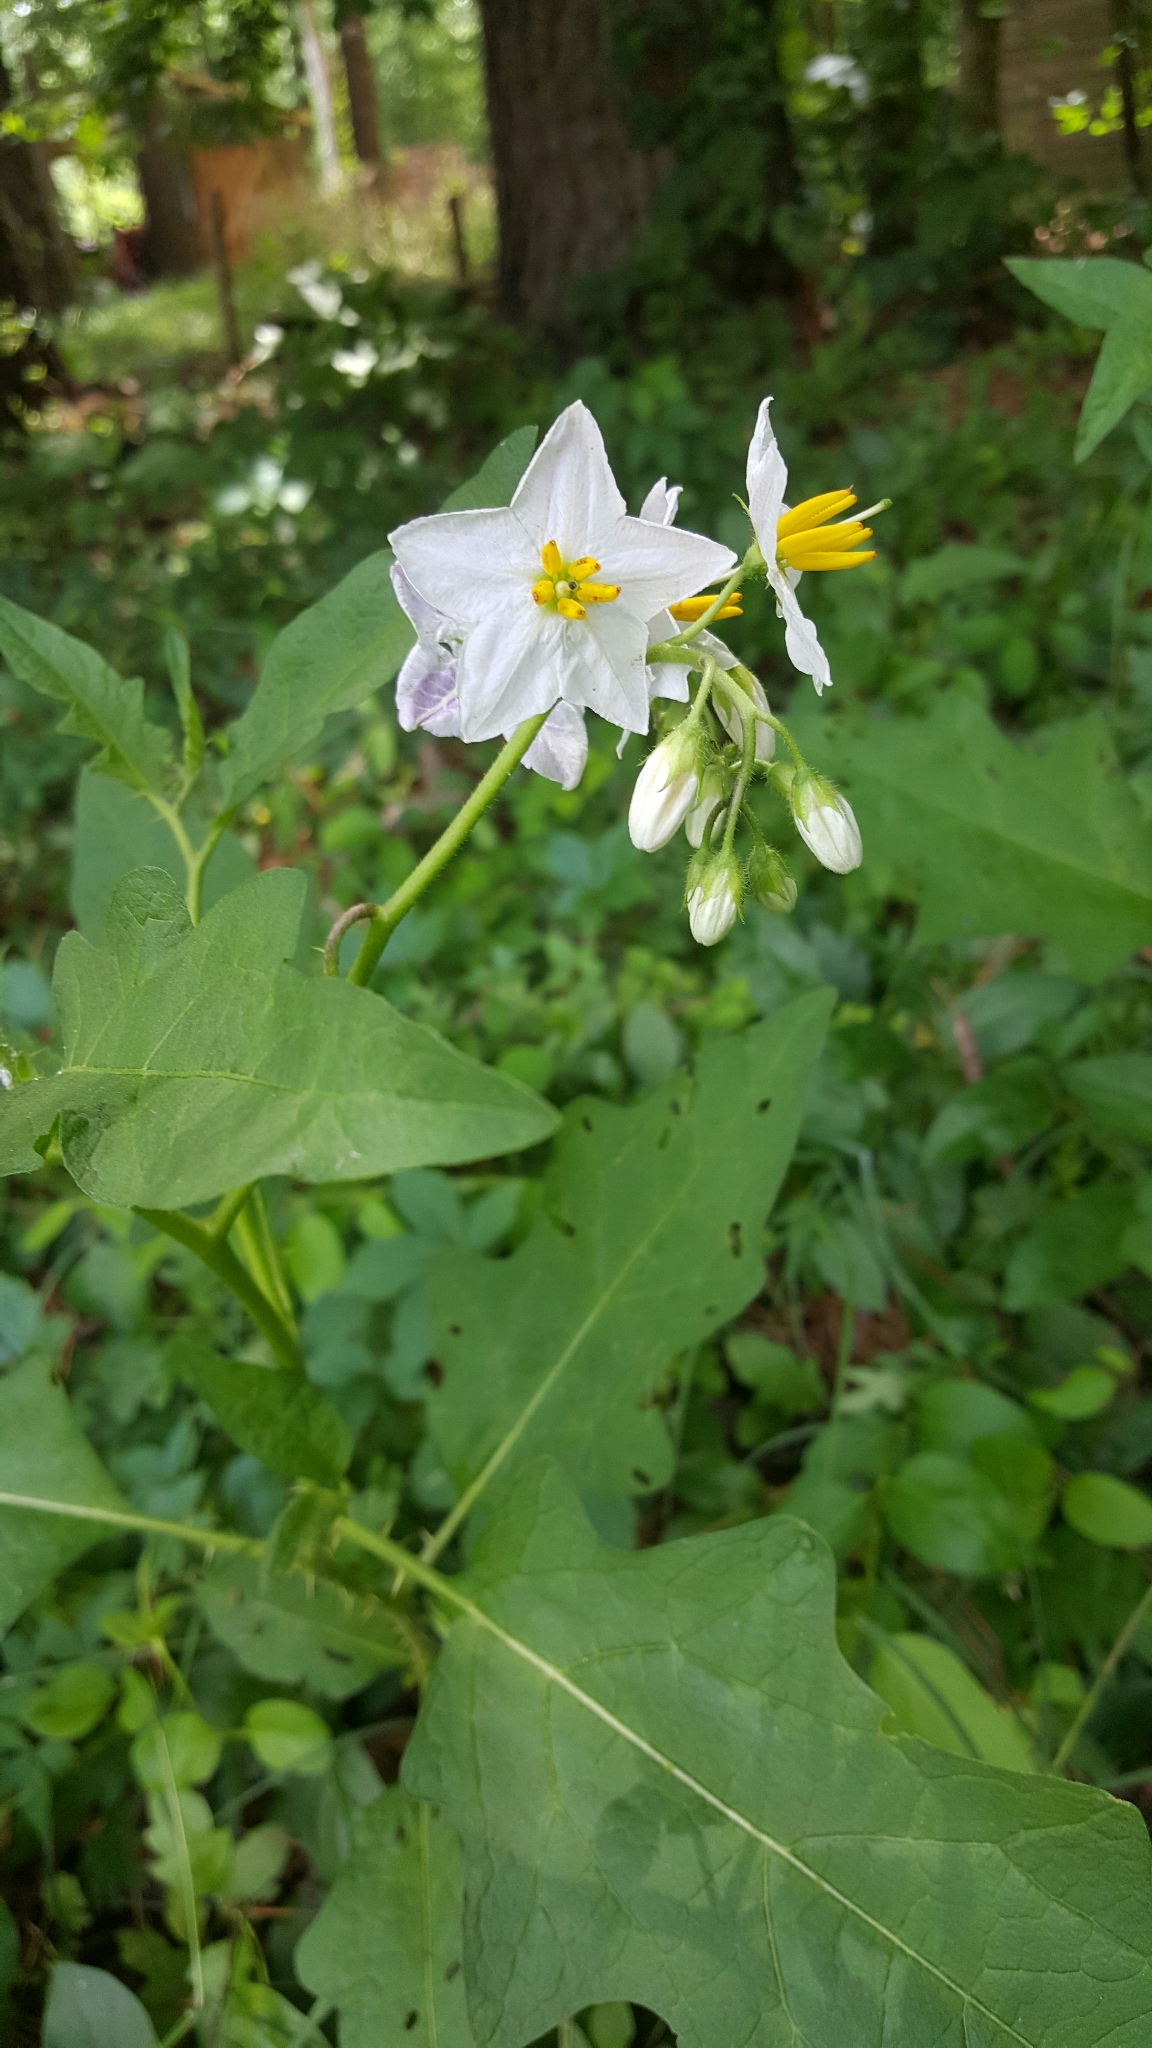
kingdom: Plantae
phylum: Tracheophyta
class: Magnoliopsida
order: Solanales
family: Solanaceae
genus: Solanum
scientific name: Solanum carolinense
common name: Horse-nettle
